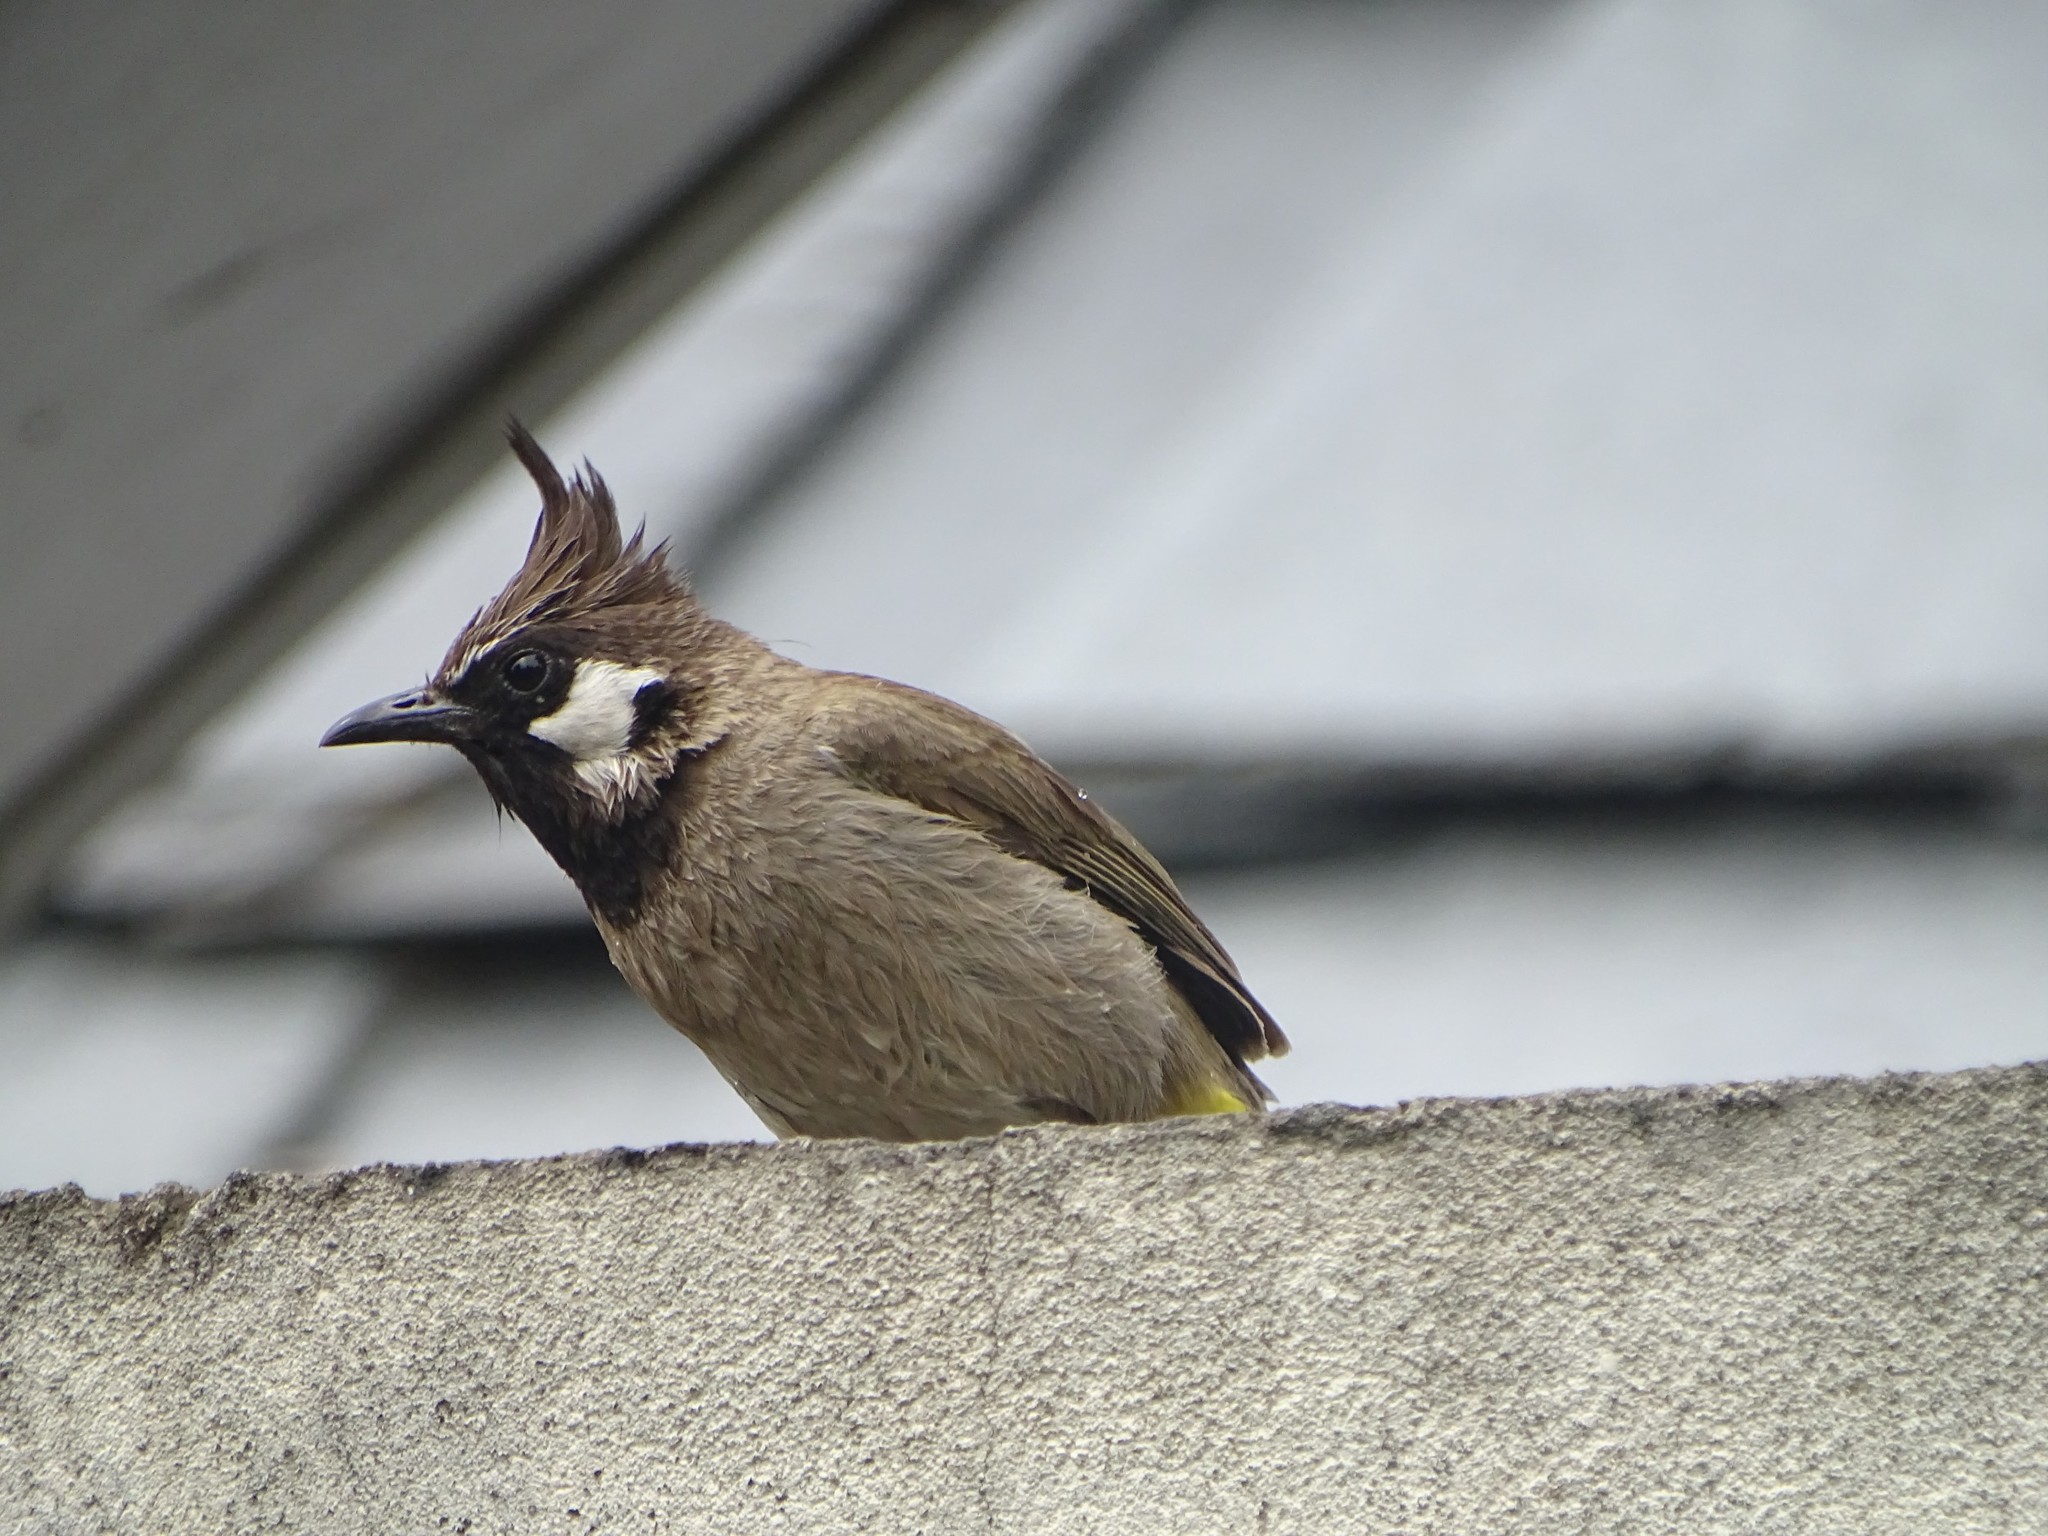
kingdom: Animalia
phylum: Chordata
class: Aves
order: Passeriformes
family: Pycnonotidae
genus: Pycnonotus
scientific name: Pycnonotus leucogenys
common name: Himalayan bulbul
